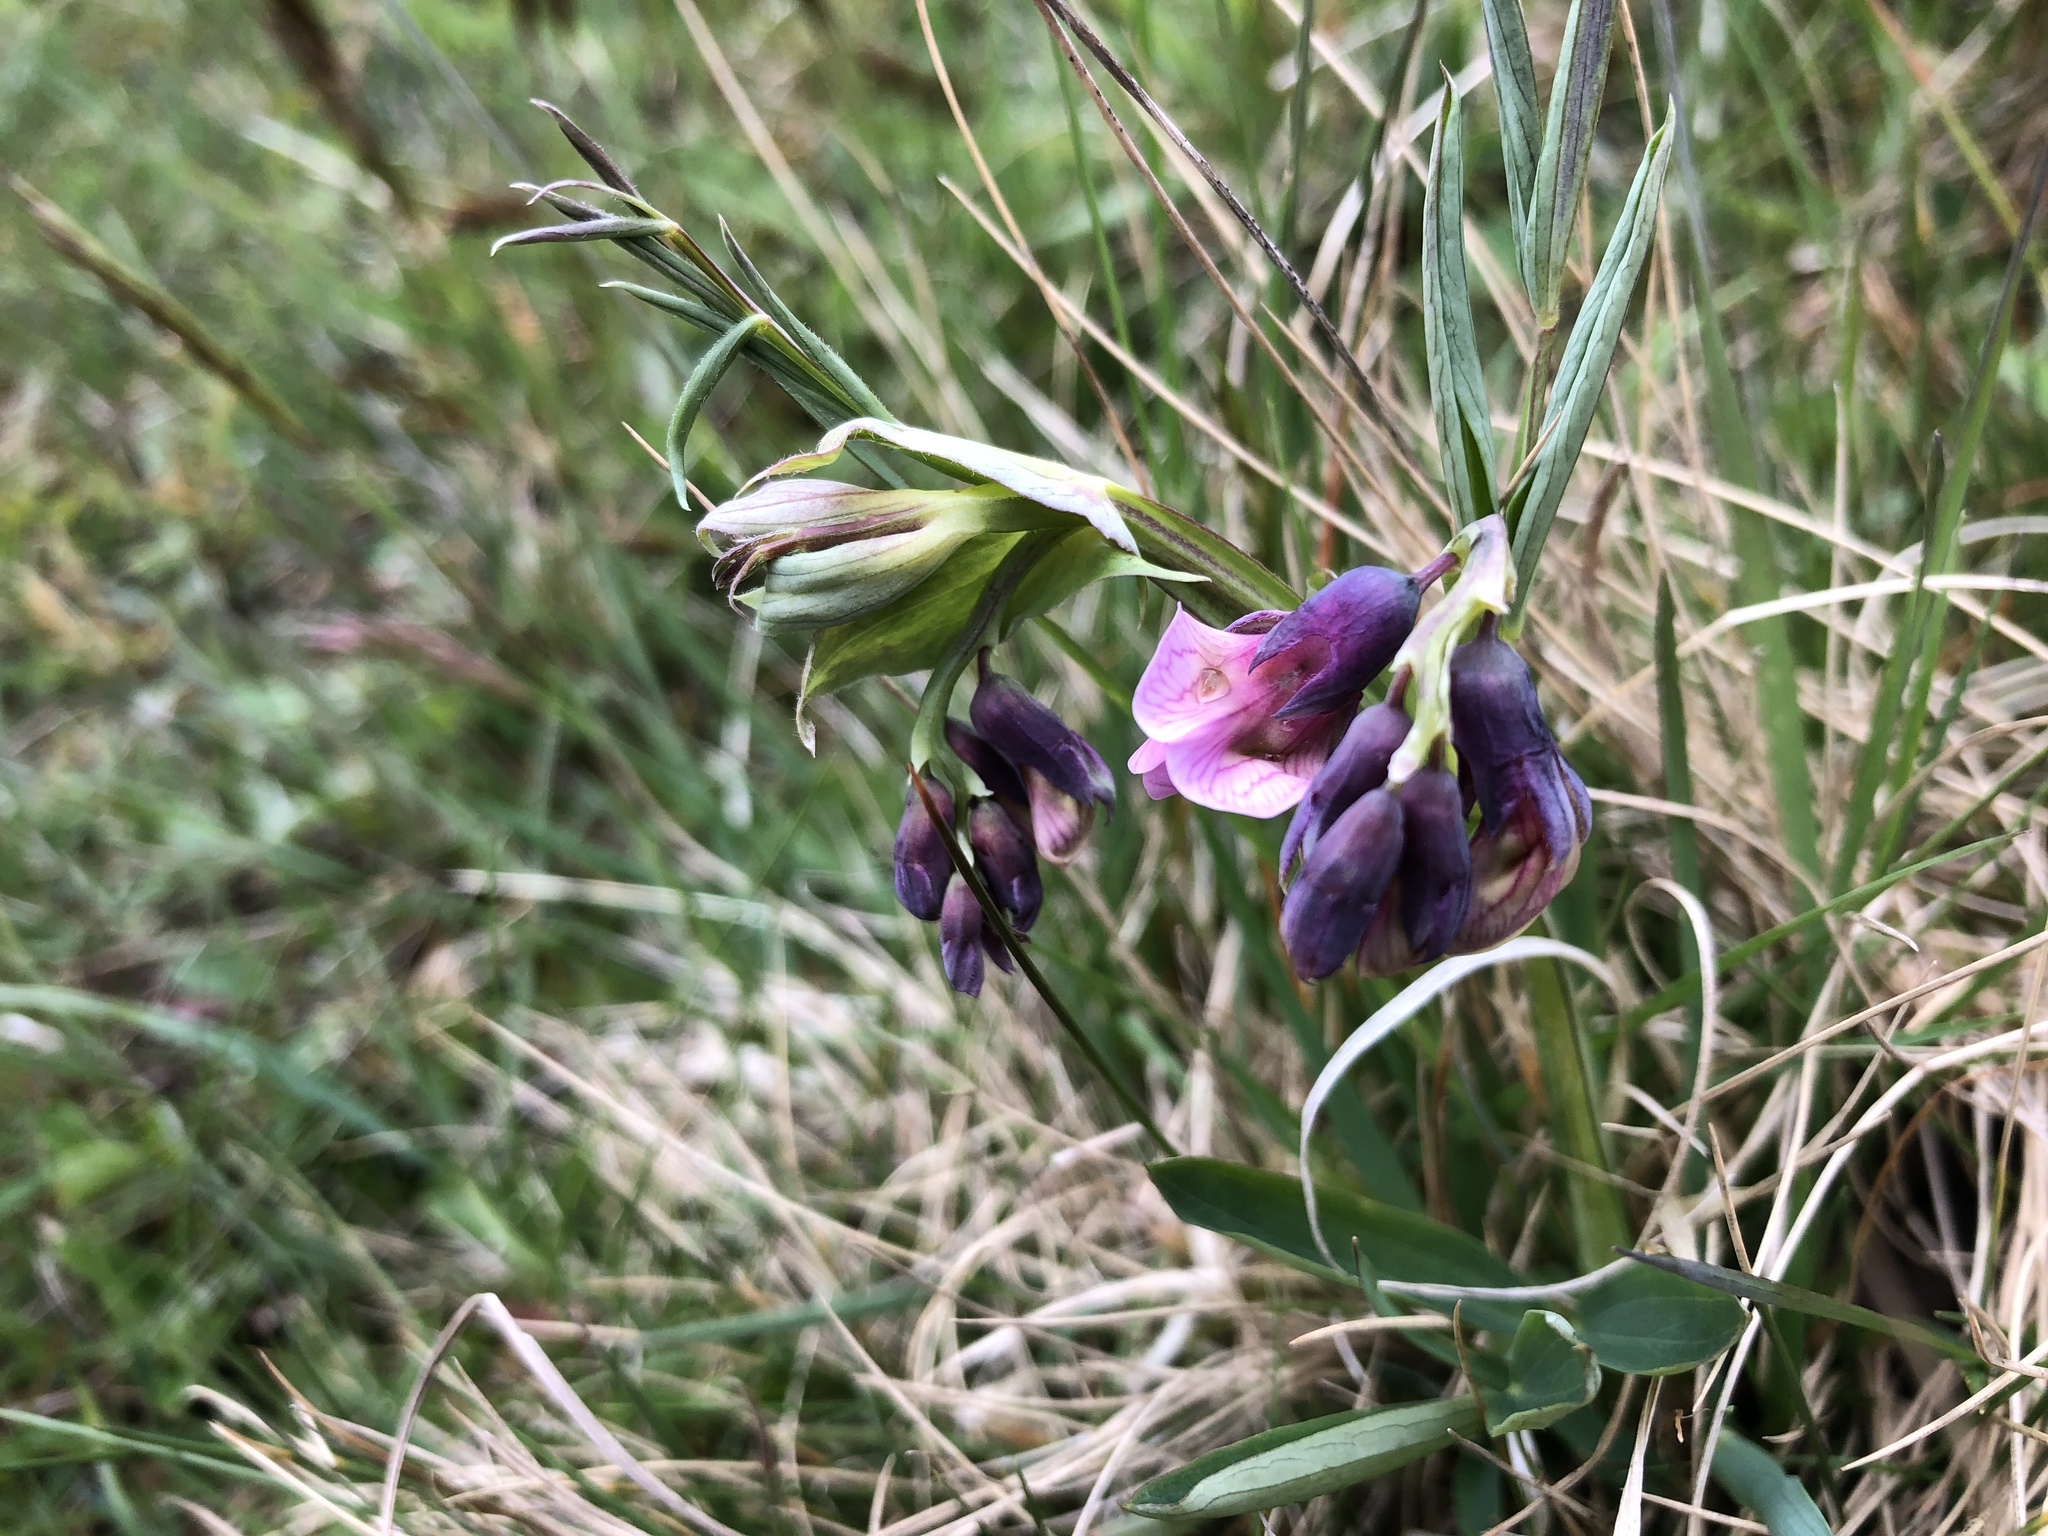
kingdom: Plantae
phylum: Tracheophyta
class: Magnoliopsida
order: Fabales
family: Fabaceae
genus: Lathyrus
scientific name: Lathyrus linifolius
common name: Bitter-vetch
